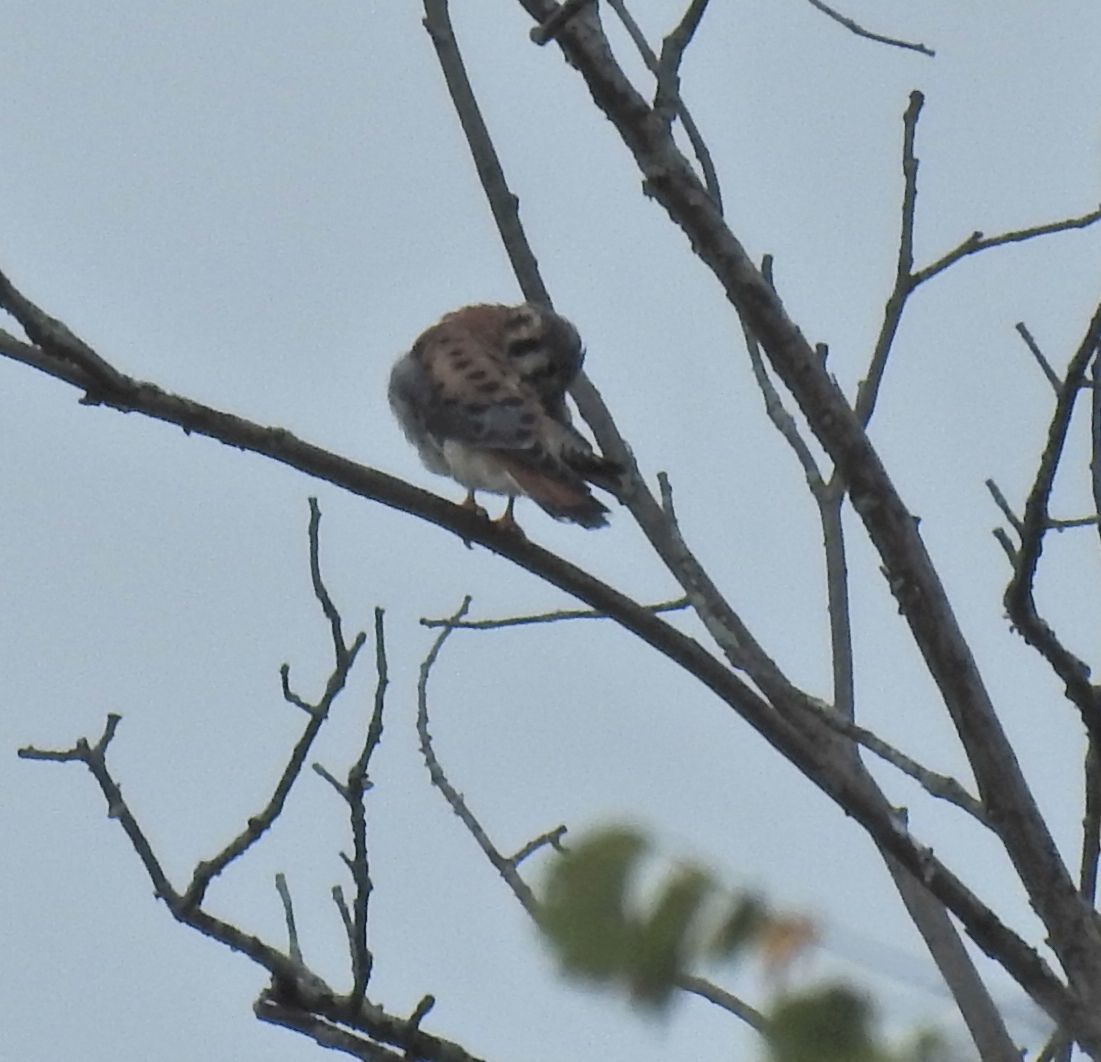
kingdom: Animalia
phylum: Chordata
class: Aves
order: Falconiformes
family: Falconidae
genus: Falco
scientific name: Falco sparverius
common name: American kestrel
